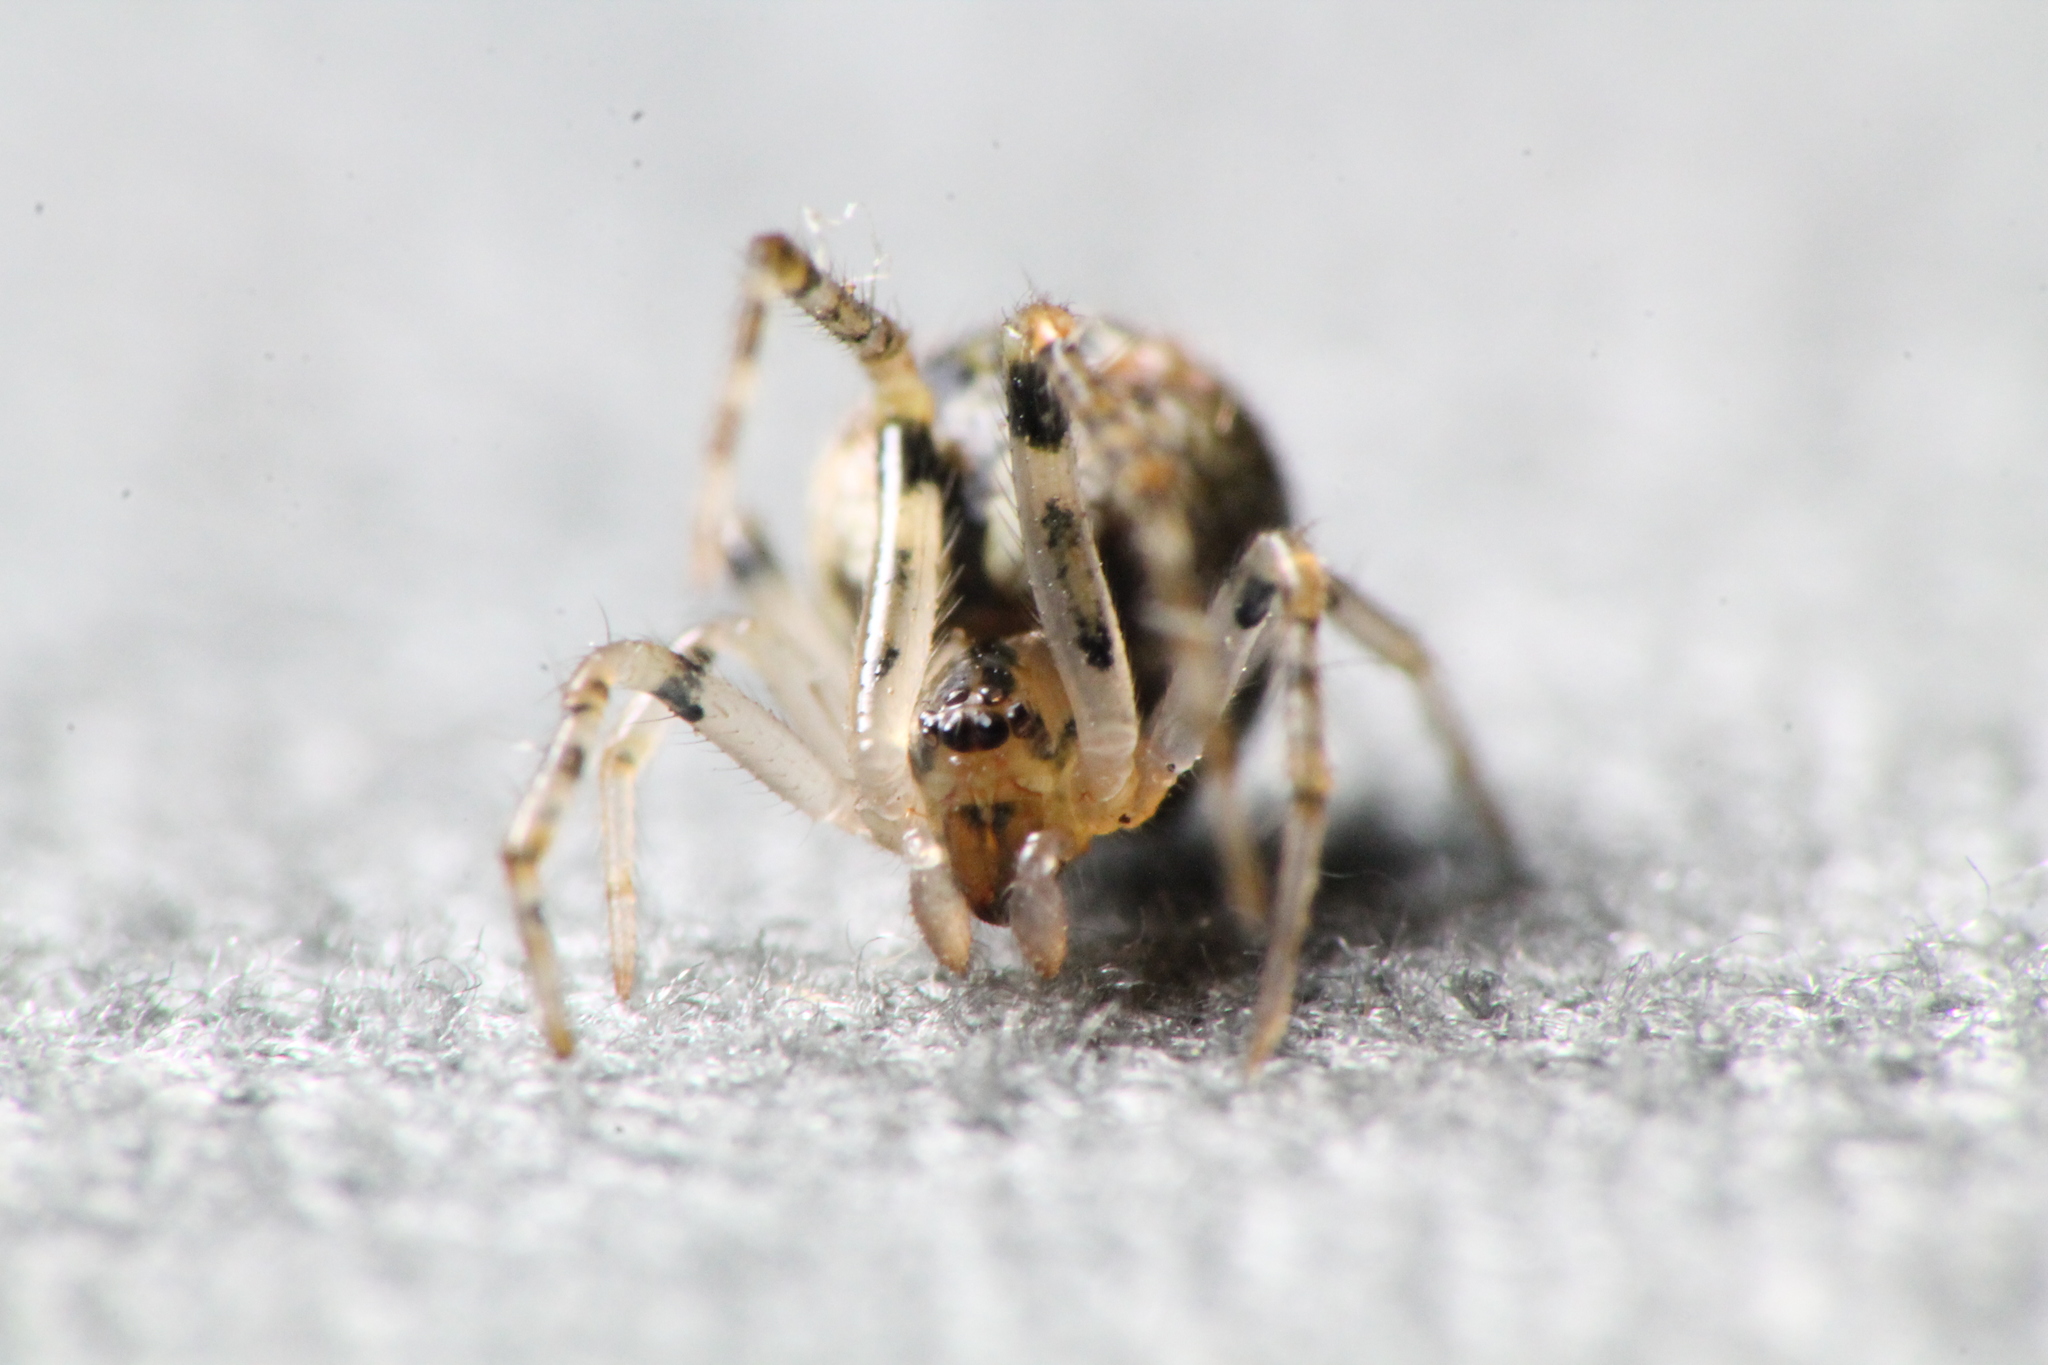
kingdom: Animalia
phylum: Arthropoda
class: Arachnida
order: Araneae
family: Theridiidae
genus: Achaearanea
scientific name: Achaearanea propera
